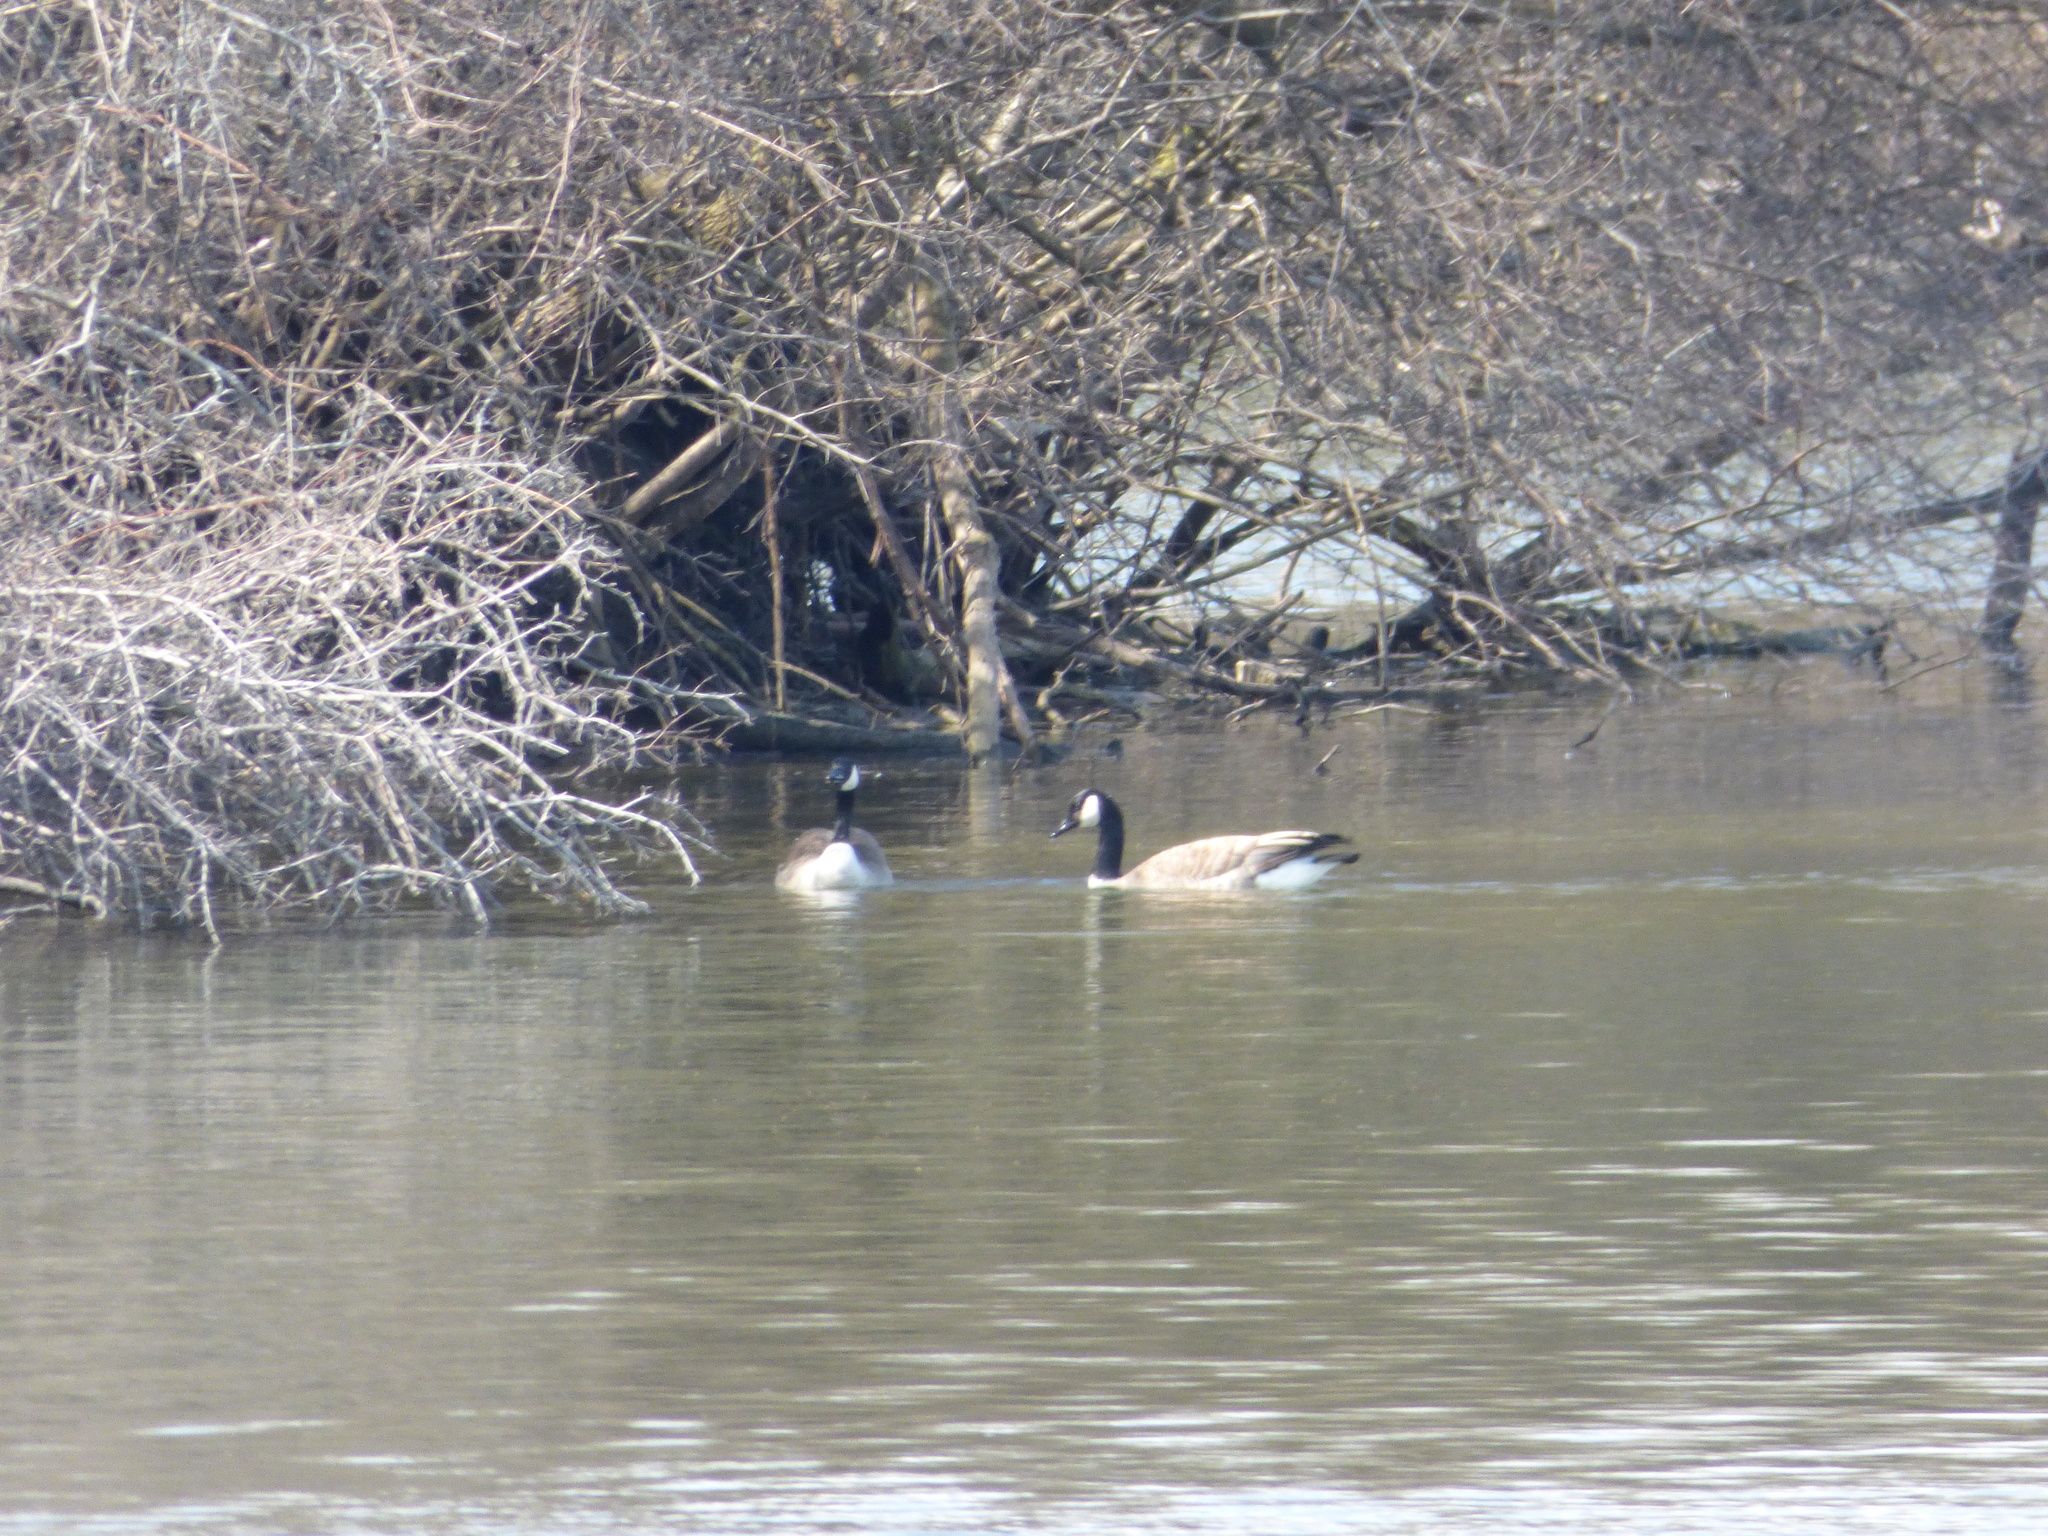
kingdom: Animalia
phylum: Chordata
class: Aves
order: Anseriformes
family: Anatidae
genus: Branta
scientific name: Branta canadensis
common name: Canada goose
